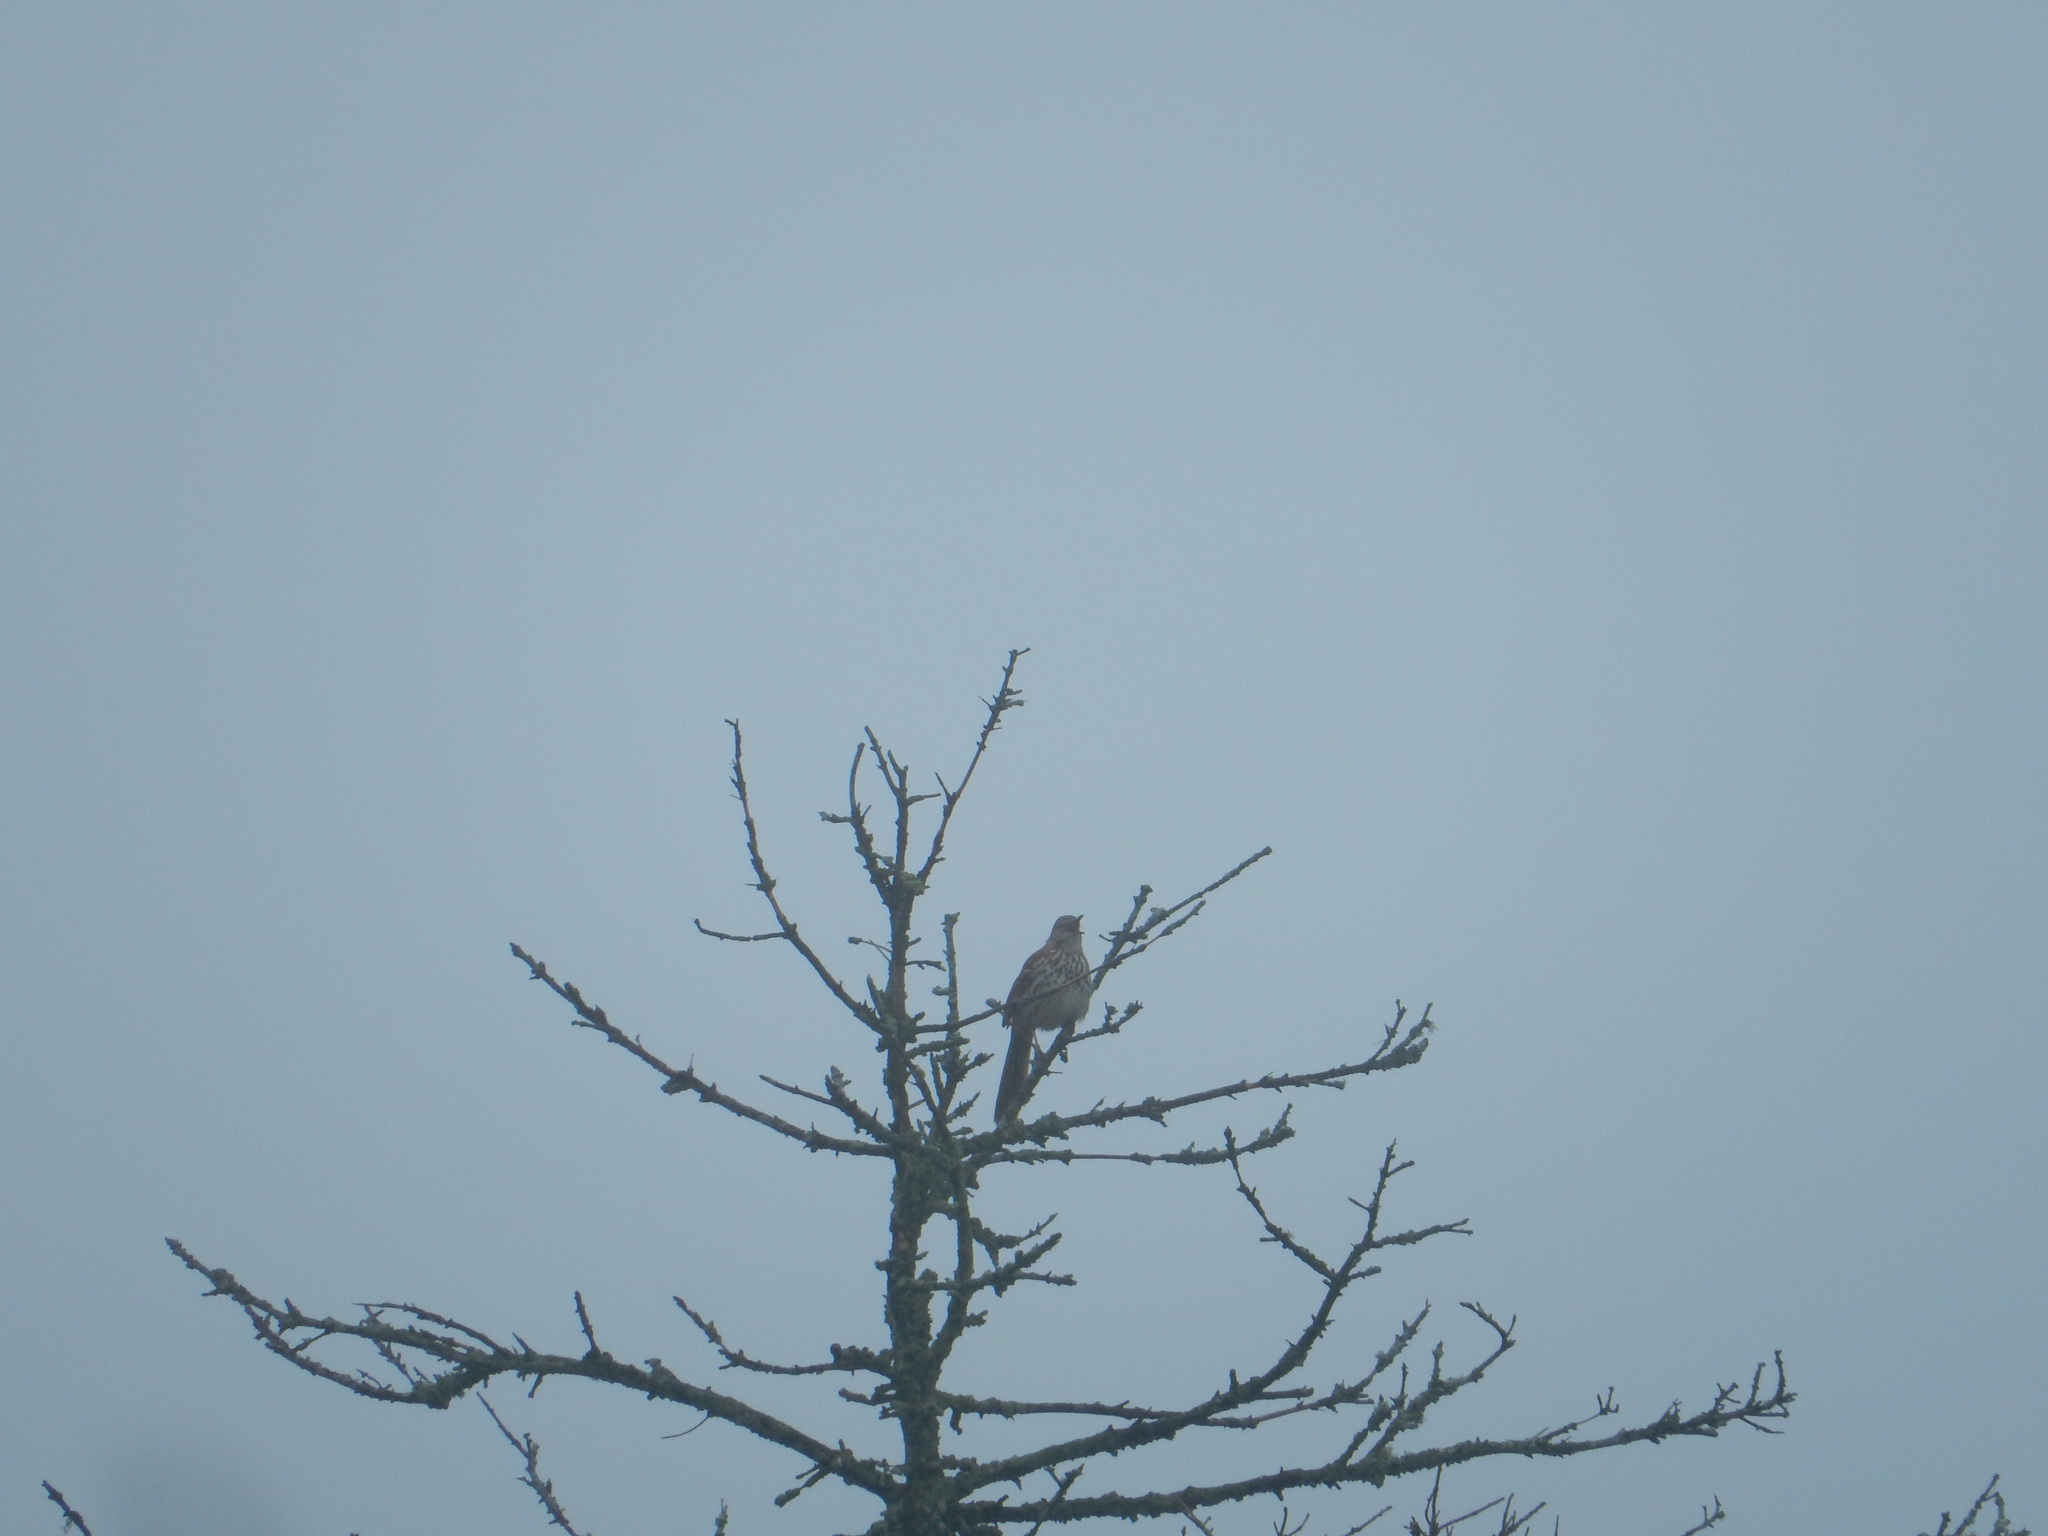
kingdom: Animalia
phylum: Chordata
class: Aves
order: Passeriformes
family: Mimidae
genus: Toxostoma
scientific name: Toxostoma rufum
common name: Brown thrasher
